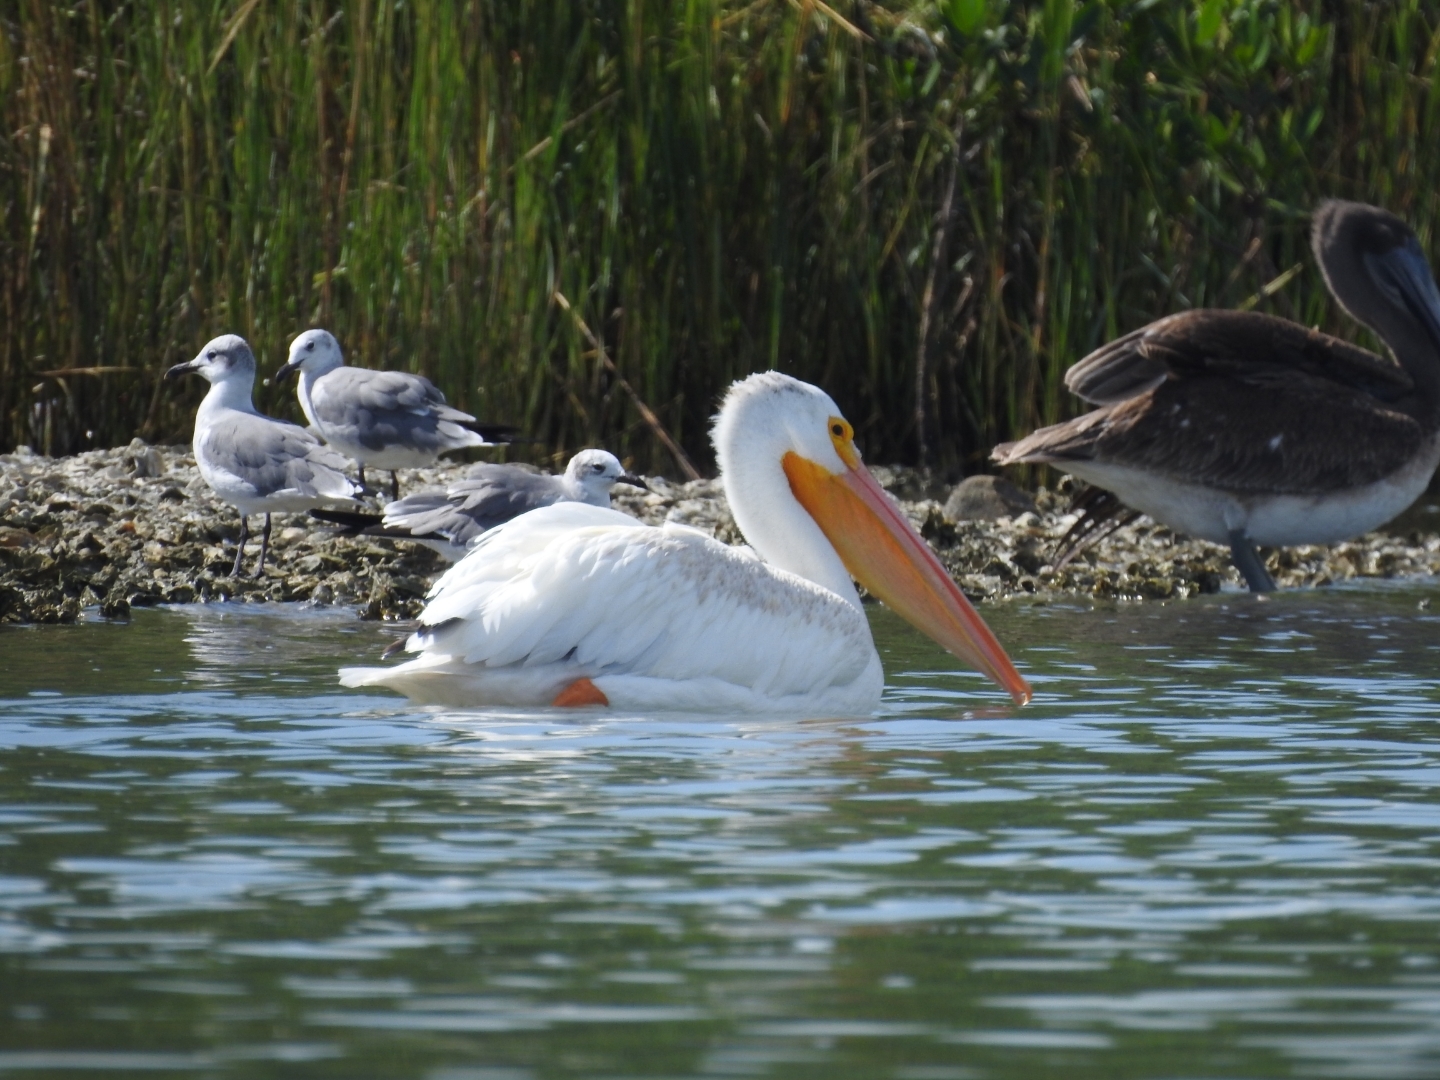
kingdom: Animalia
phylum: Chordata
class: Aves
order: Pelecaniformes
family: Pelecanidae
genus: Pelecanus
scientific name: Pelecanus erythrorhynchos
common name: American white pelican
